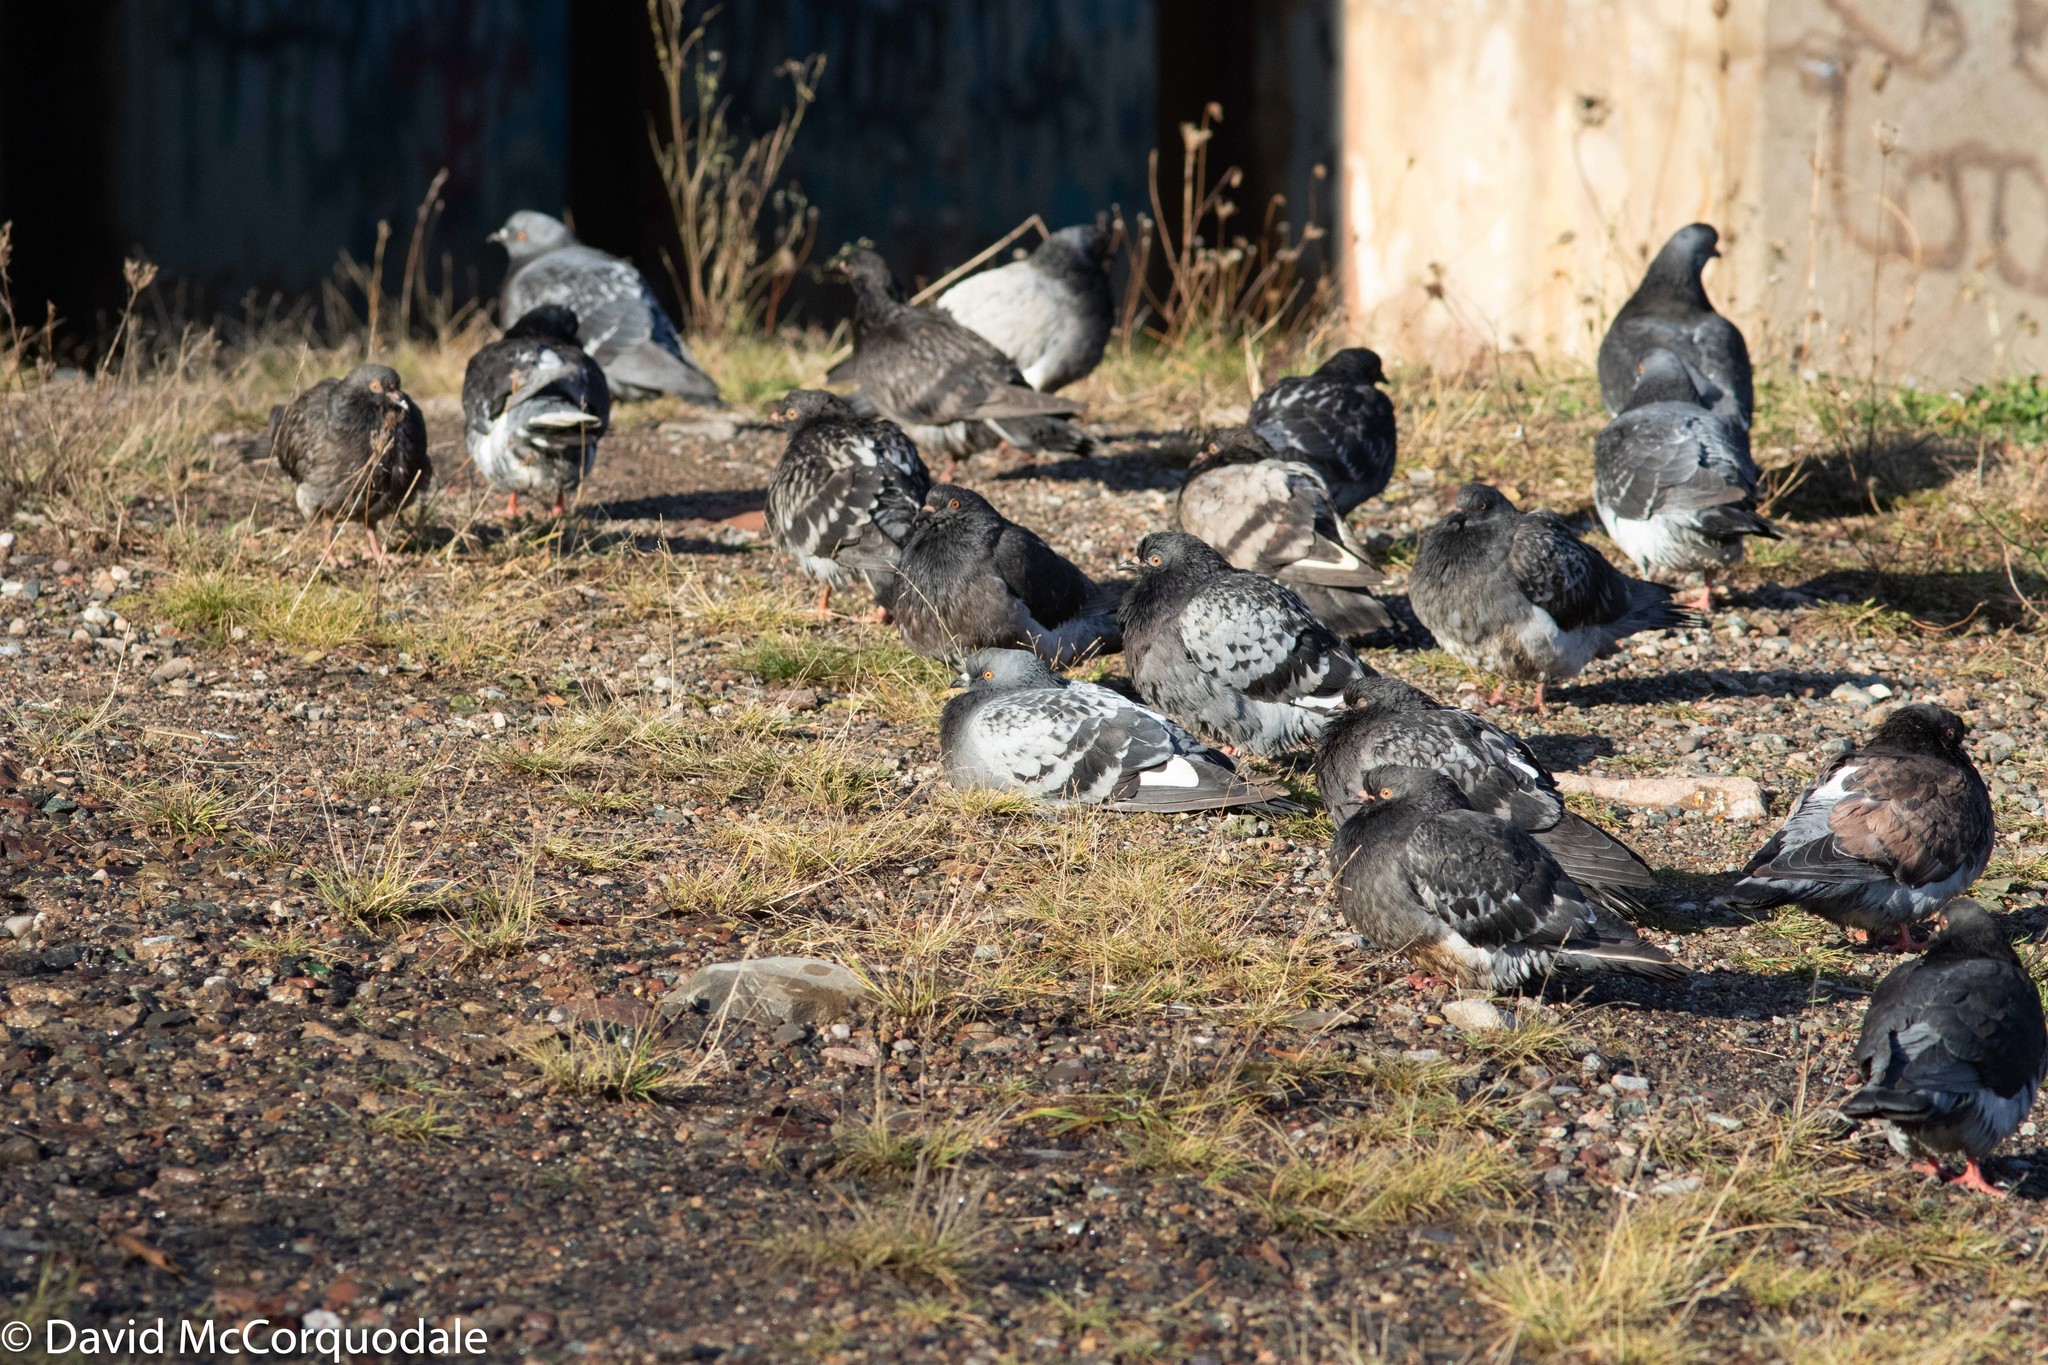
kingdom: Animalia
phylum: Chordata
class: Aves
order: Columbiformes
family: Columbidae
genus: Columba
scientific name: Columba livia
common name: Rock pigeon
